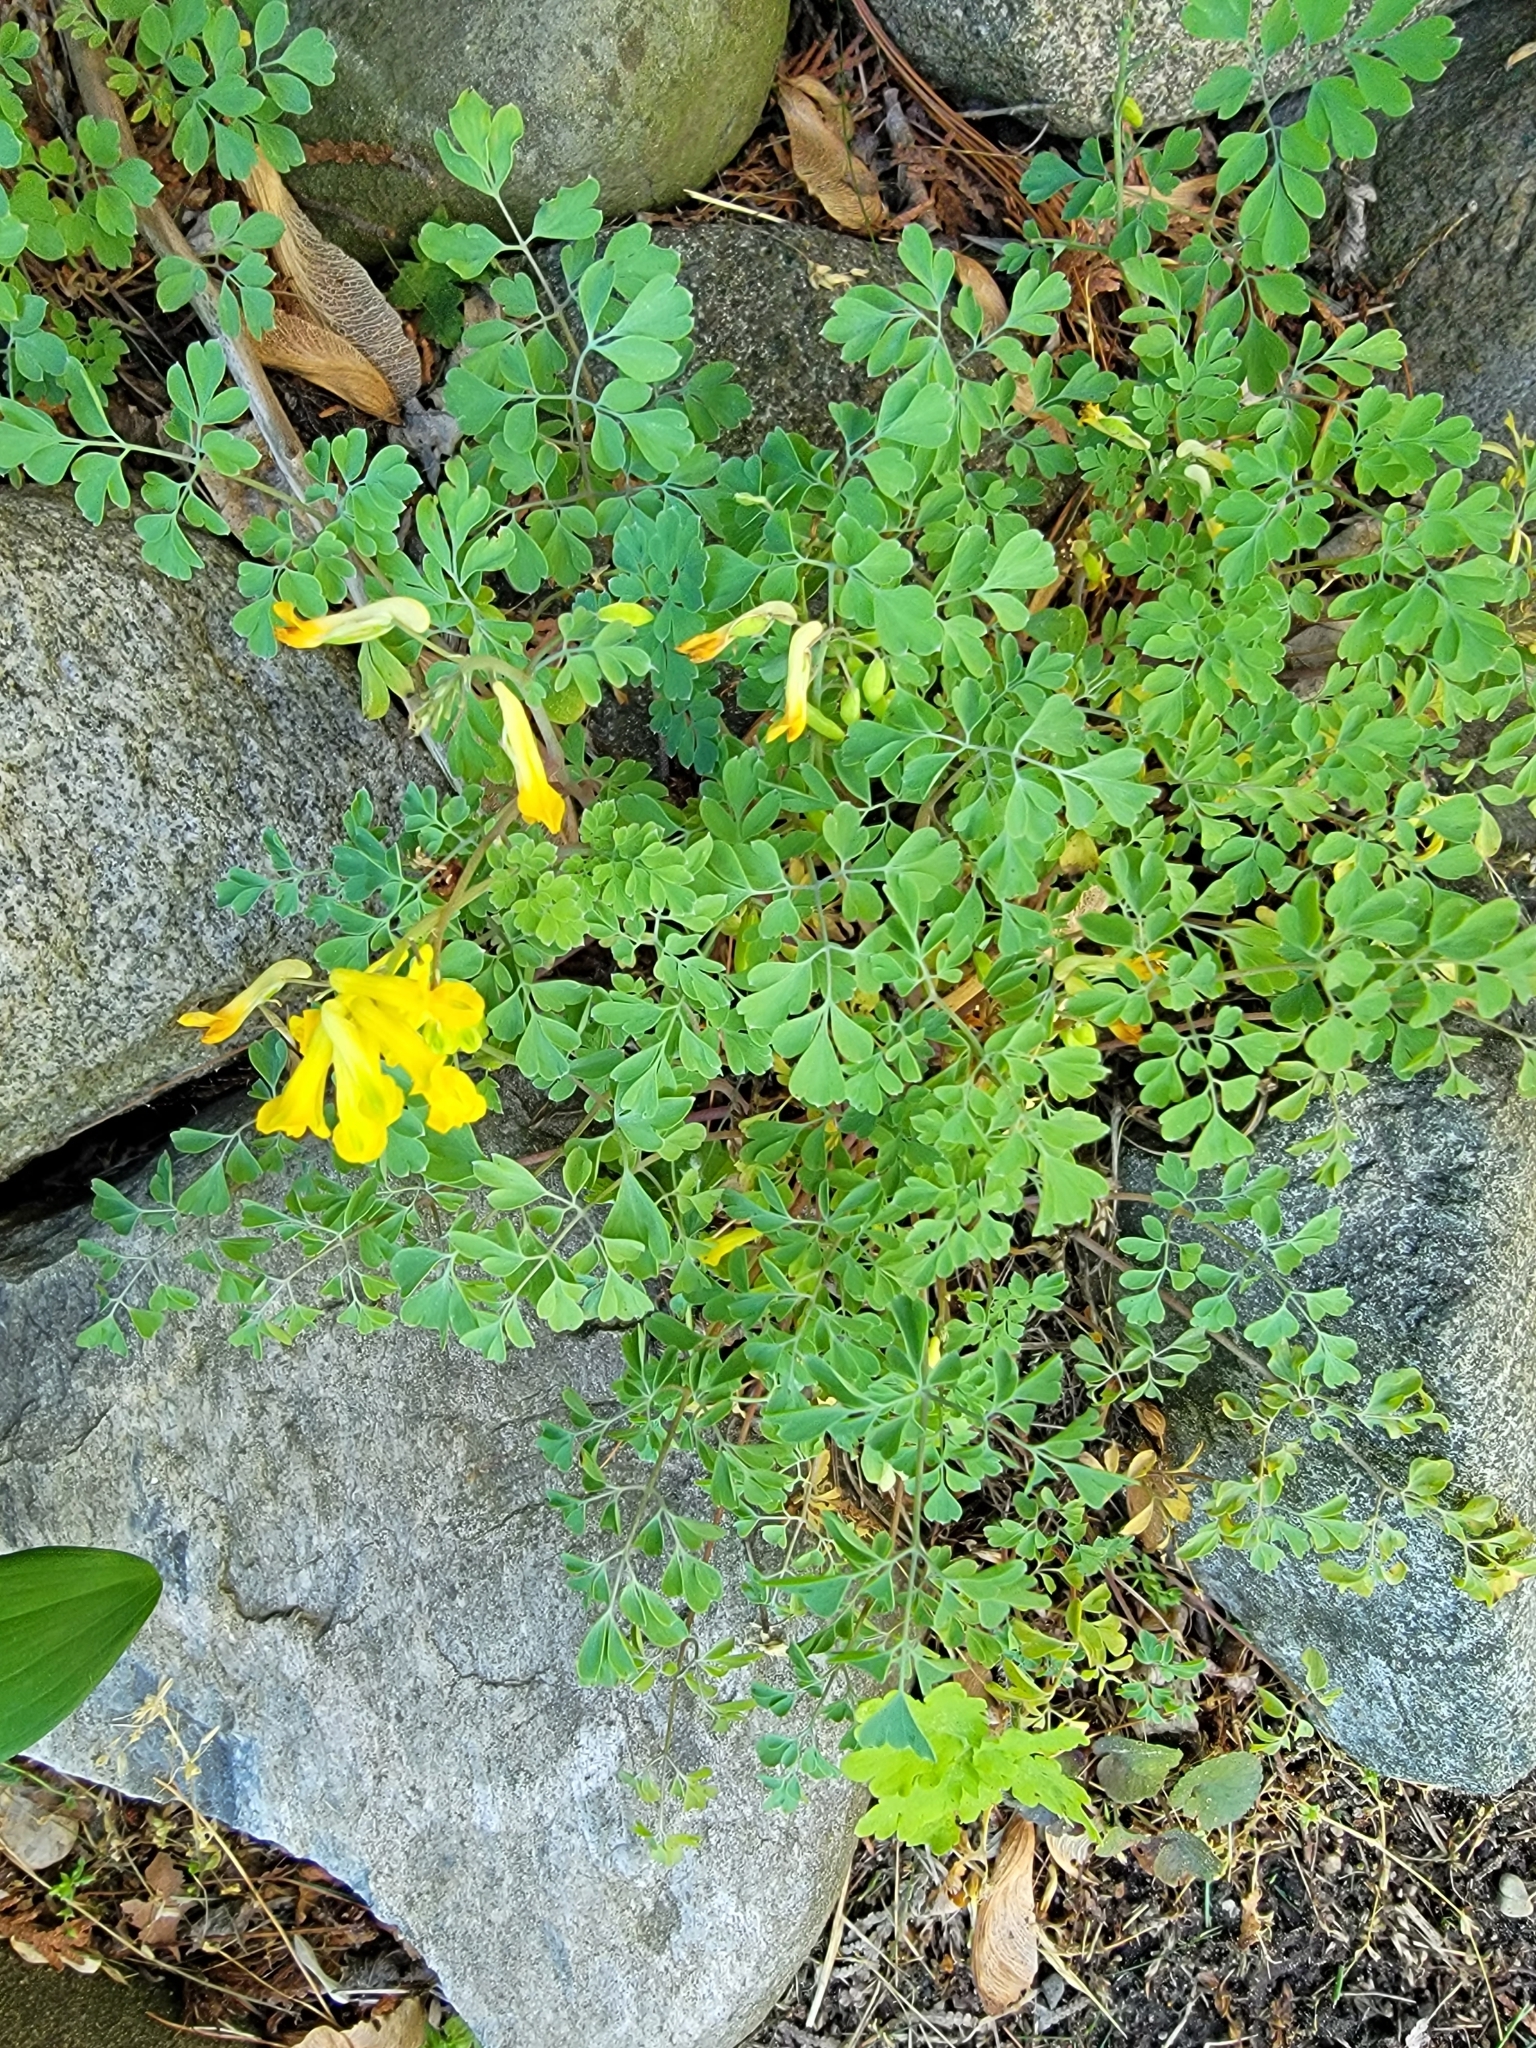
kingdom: Plantae
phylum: Tracheophyta
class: Magnoliopsida
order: Ranunculales
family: Papaveraceae
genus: Pseudofumaria
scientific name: Pseudofumaria lutea
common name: Yellow corydalis
